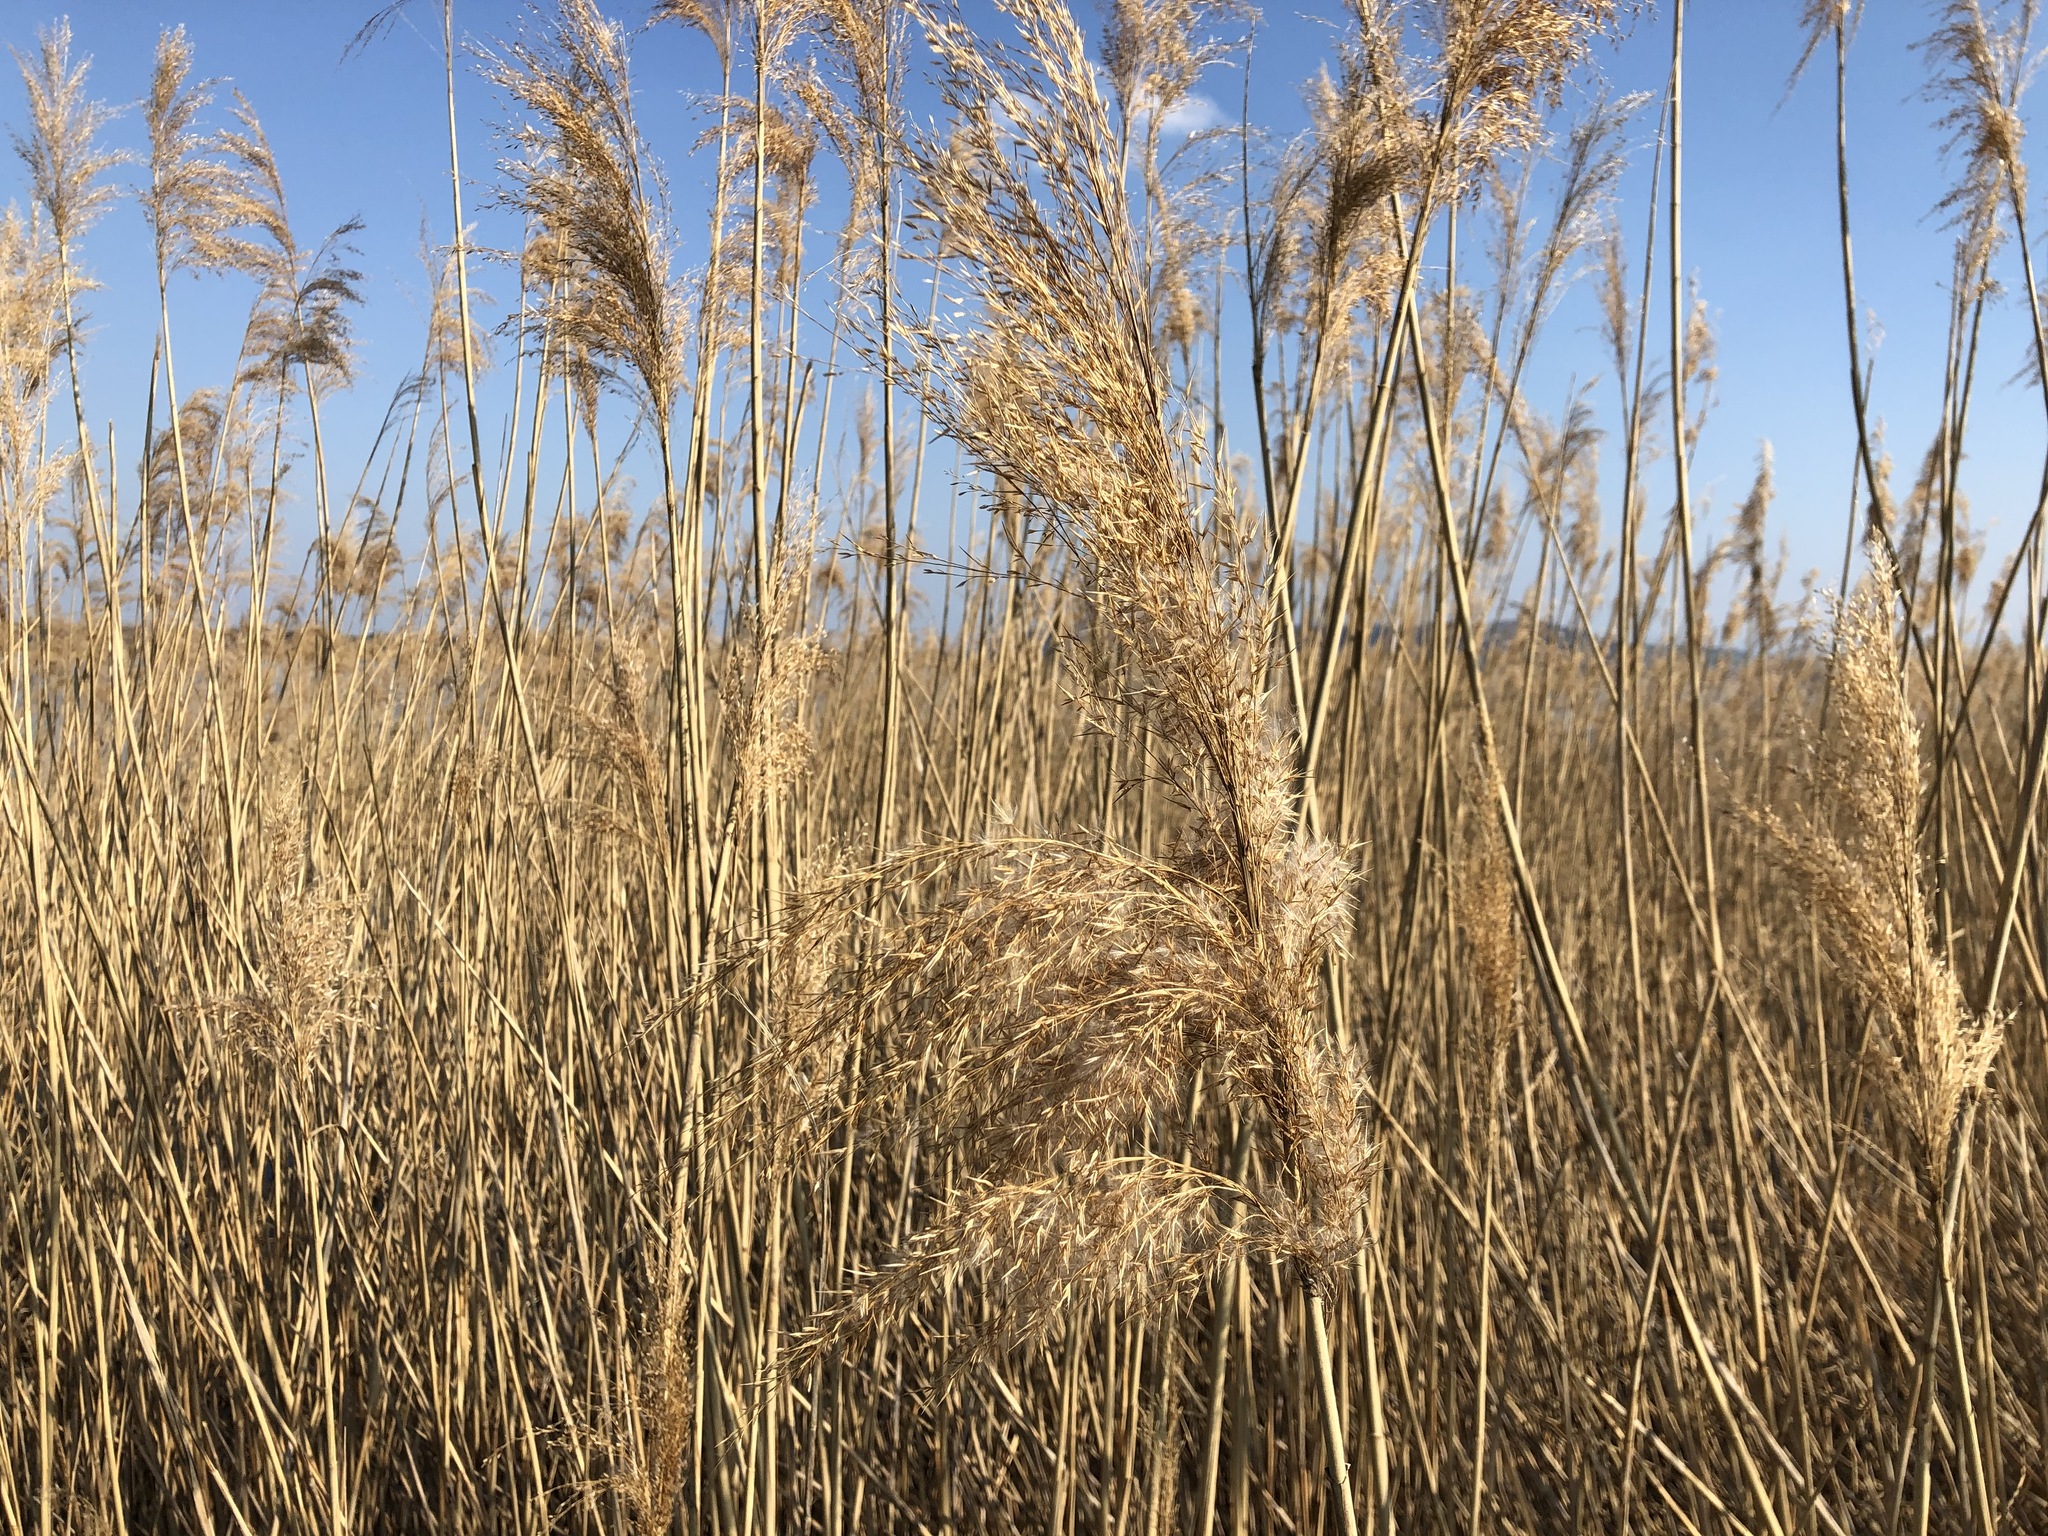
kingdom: Plantae
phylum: Tracheophyta
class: Liliopsida
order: Poales
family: Poaceae
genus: Phragmites
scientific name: Phragmites australis
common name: Common reed
